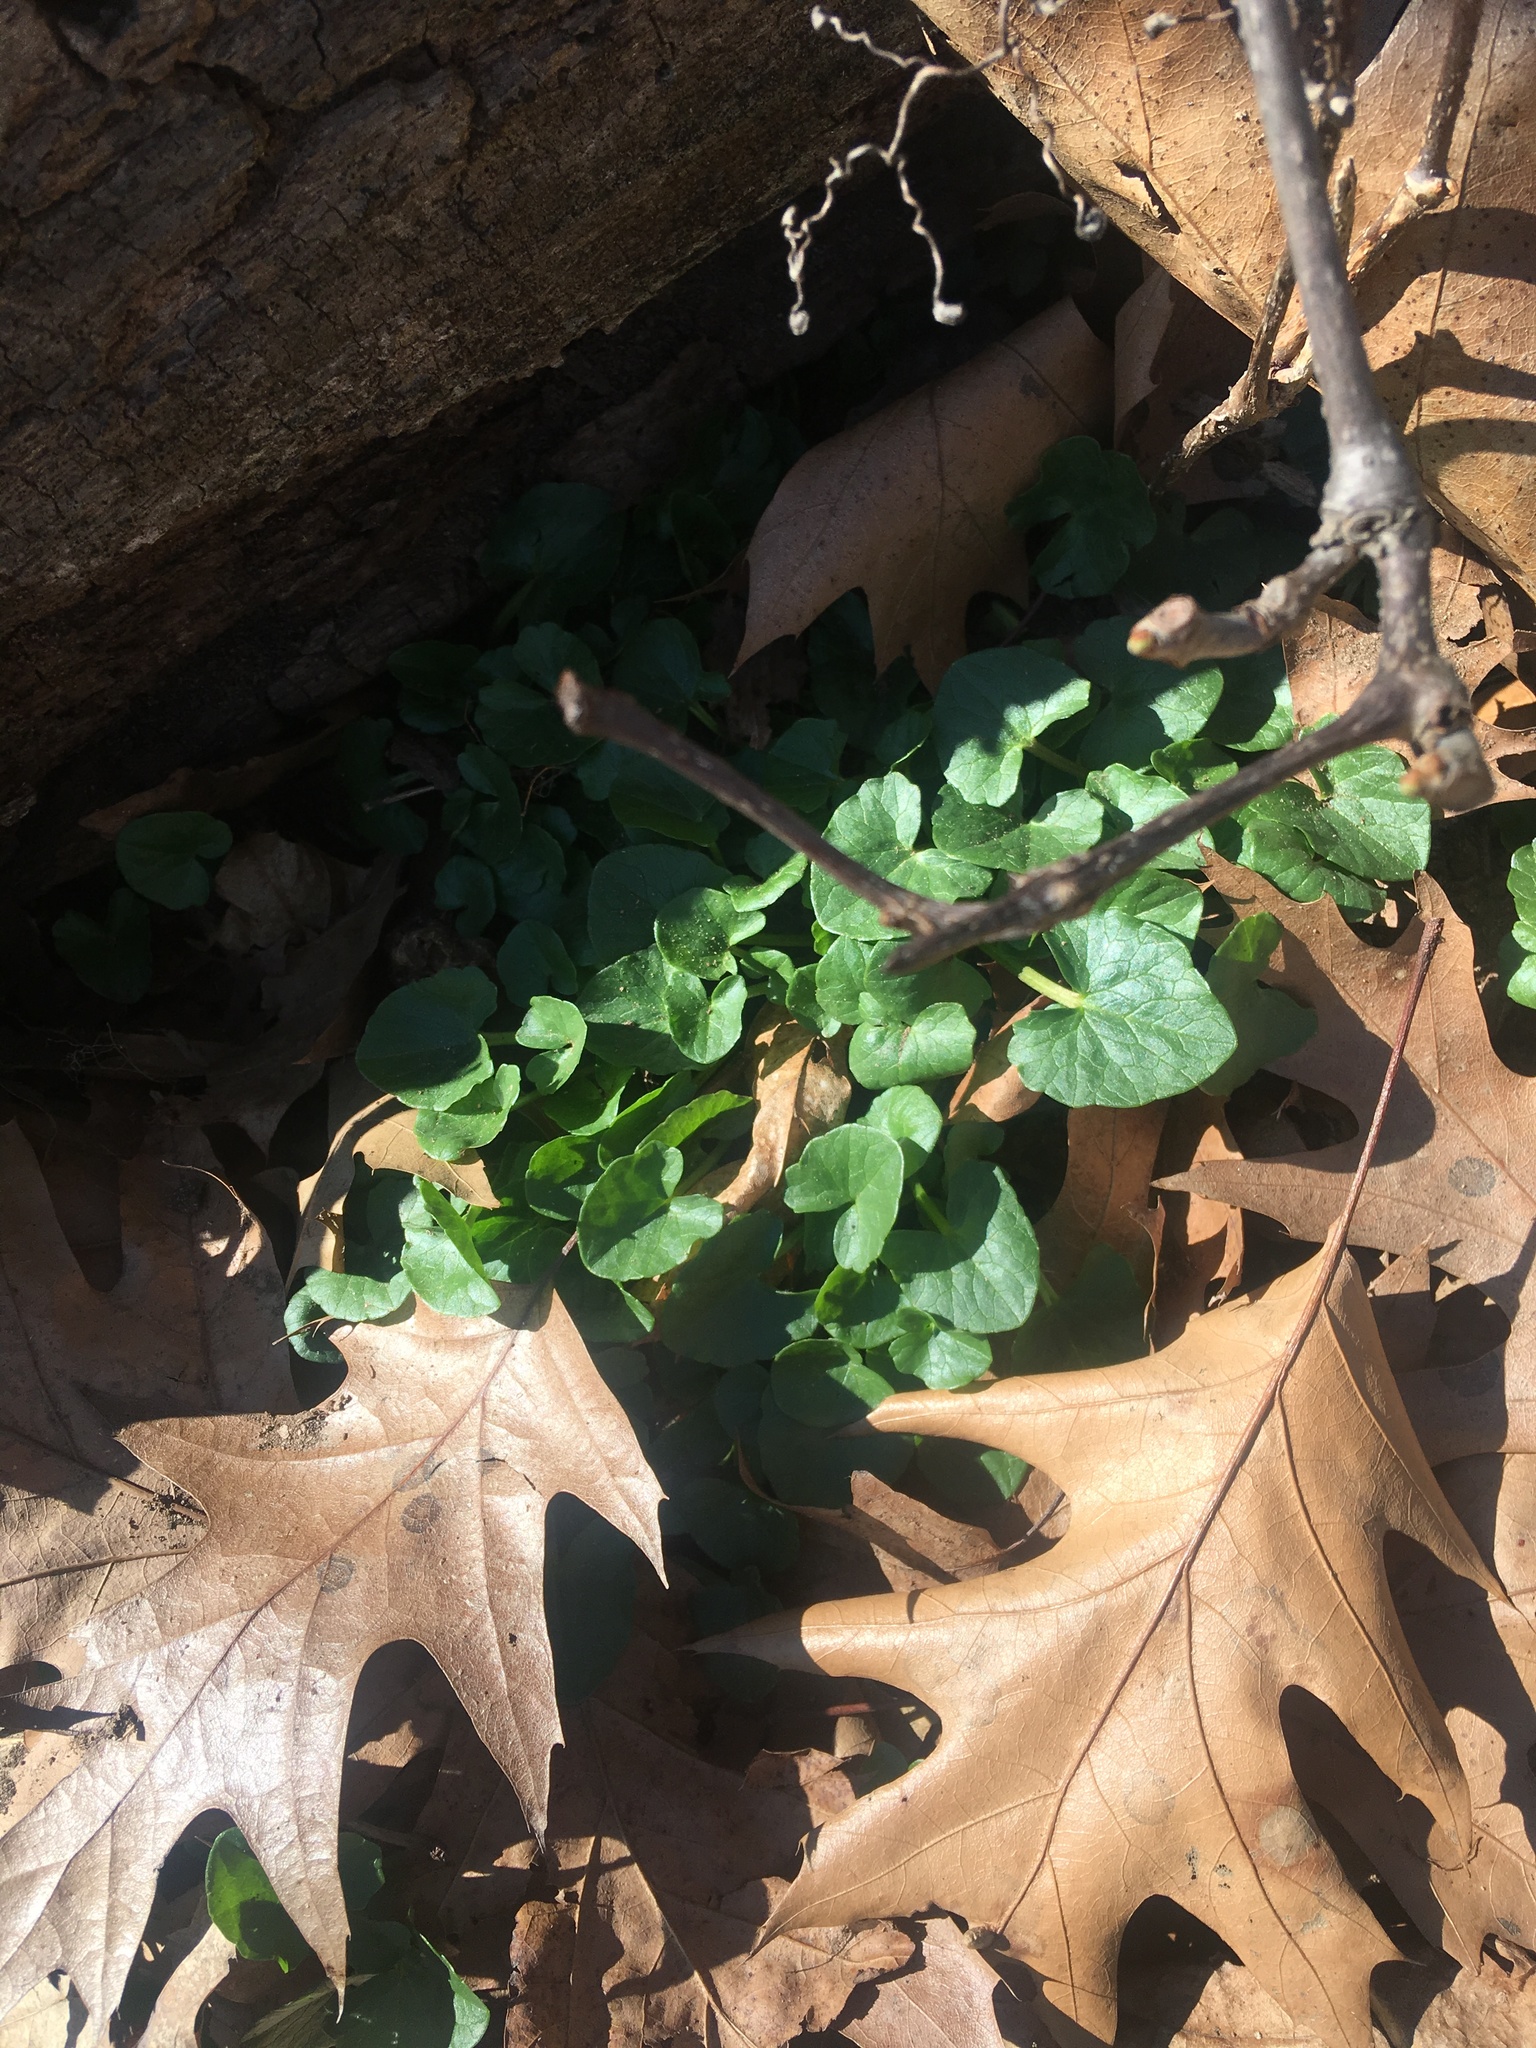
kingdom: Plantae
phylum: Tracheophyta
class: Magnoliopsida
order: Ranunculales
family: Ranunculaceae
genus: Ficaria
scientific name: Ficaria verna
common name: Lesser celandine
